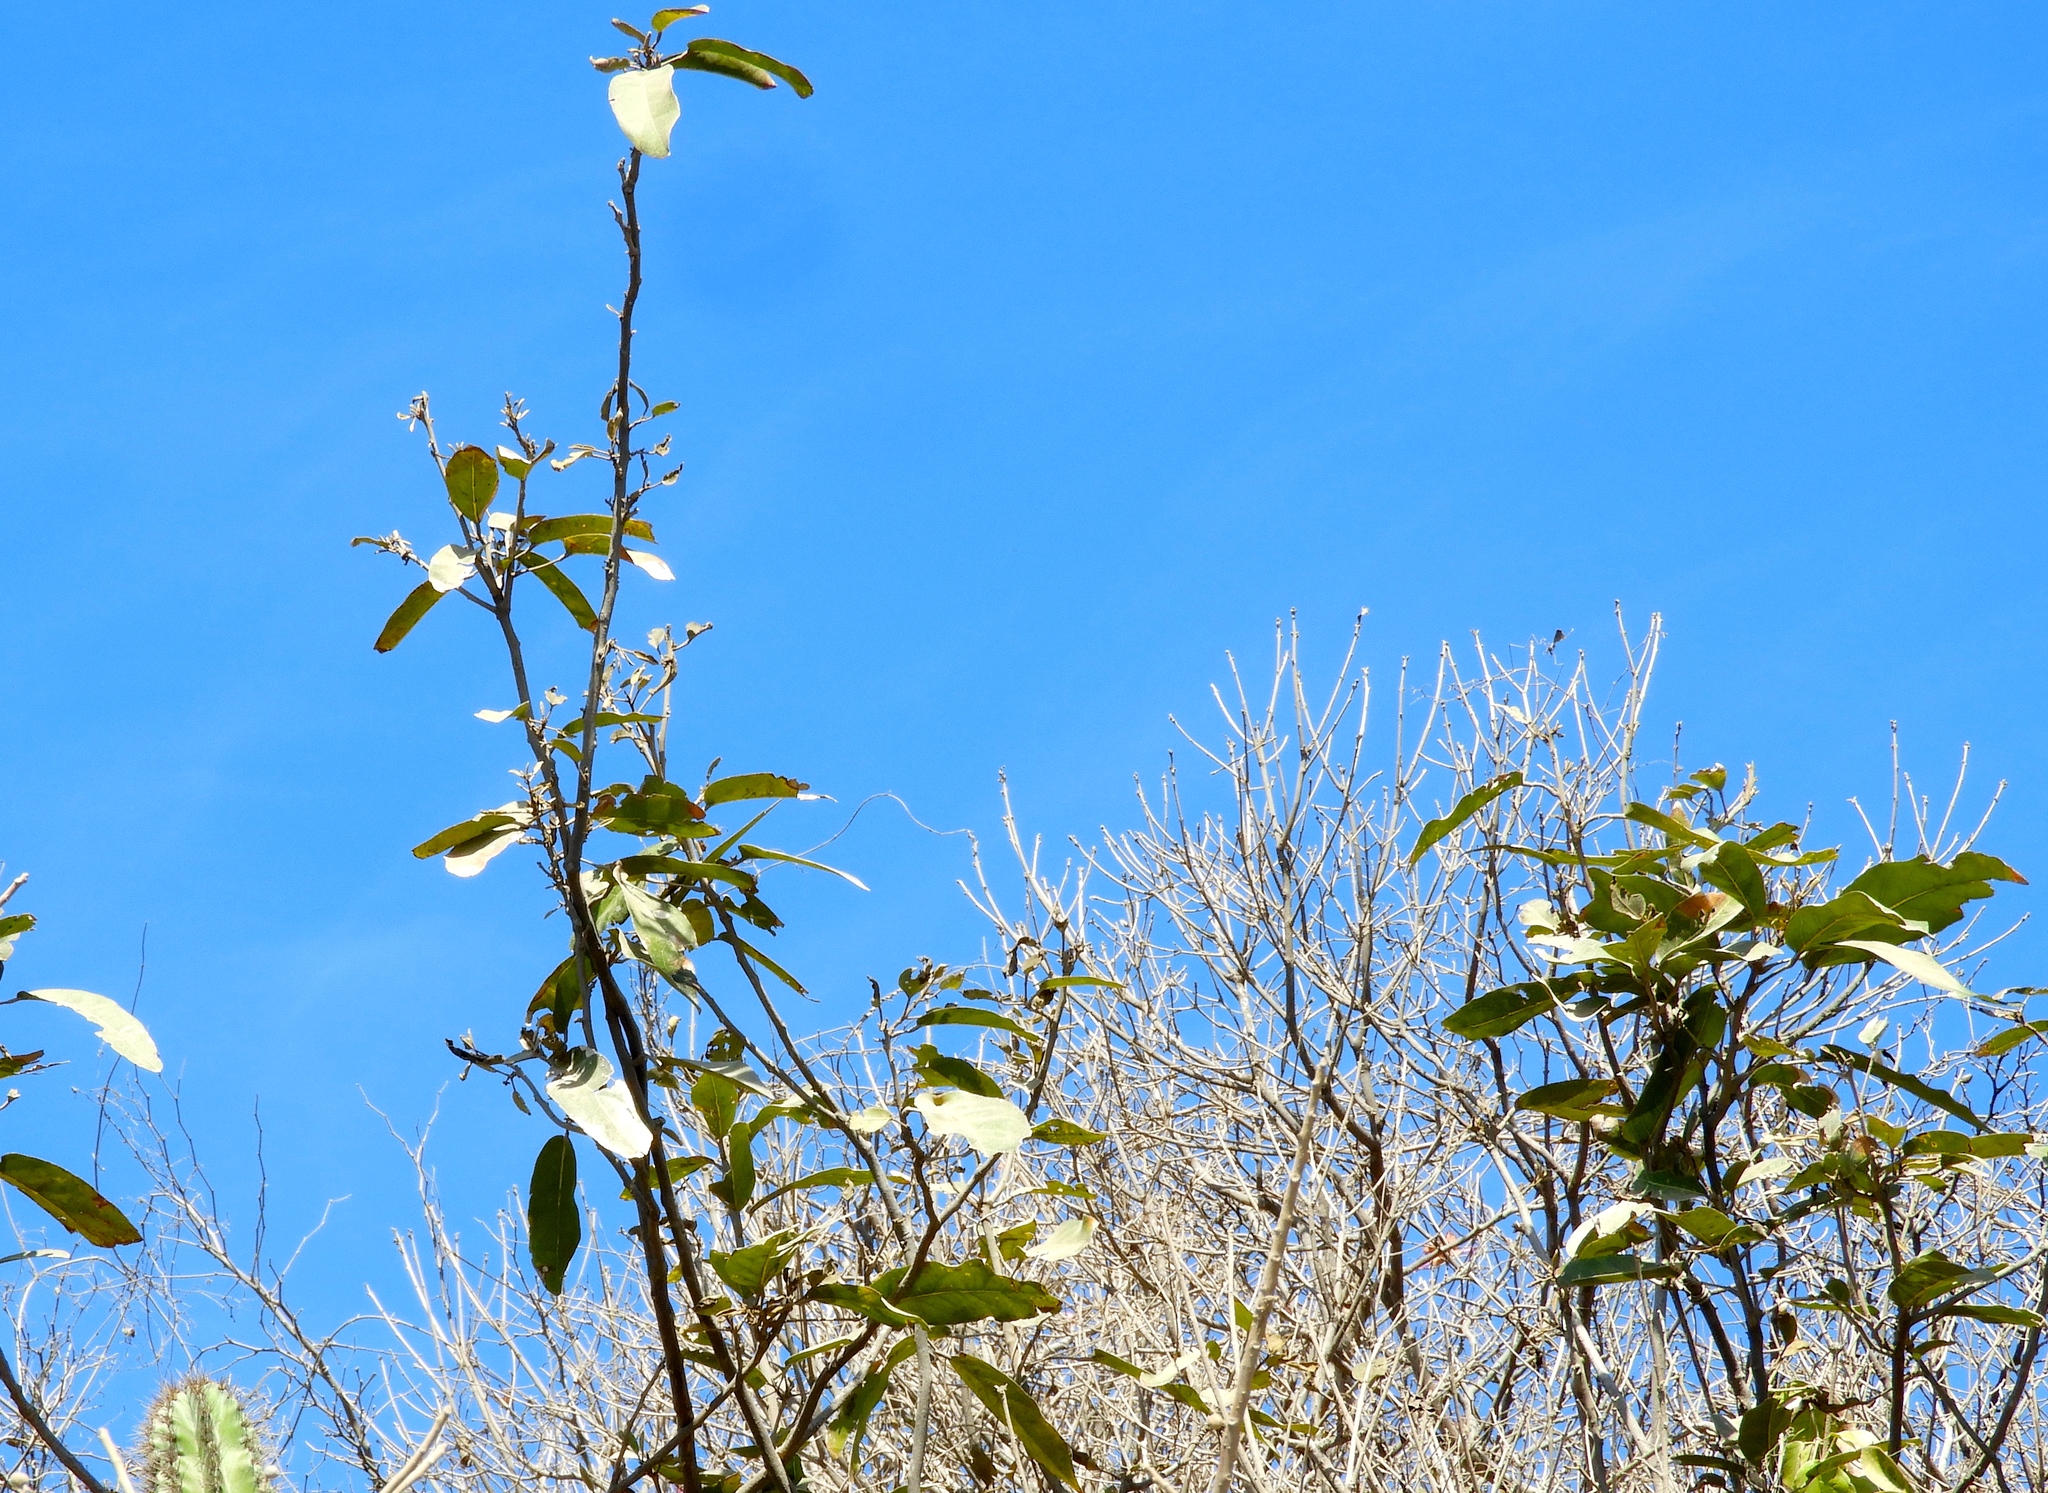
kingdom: Plantae
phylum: Tracheophyta
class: Magnoliopsida
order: Brassicales
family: Capparaceae
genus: Morisonia
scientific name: Morisonia americana
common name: Wild mesple
